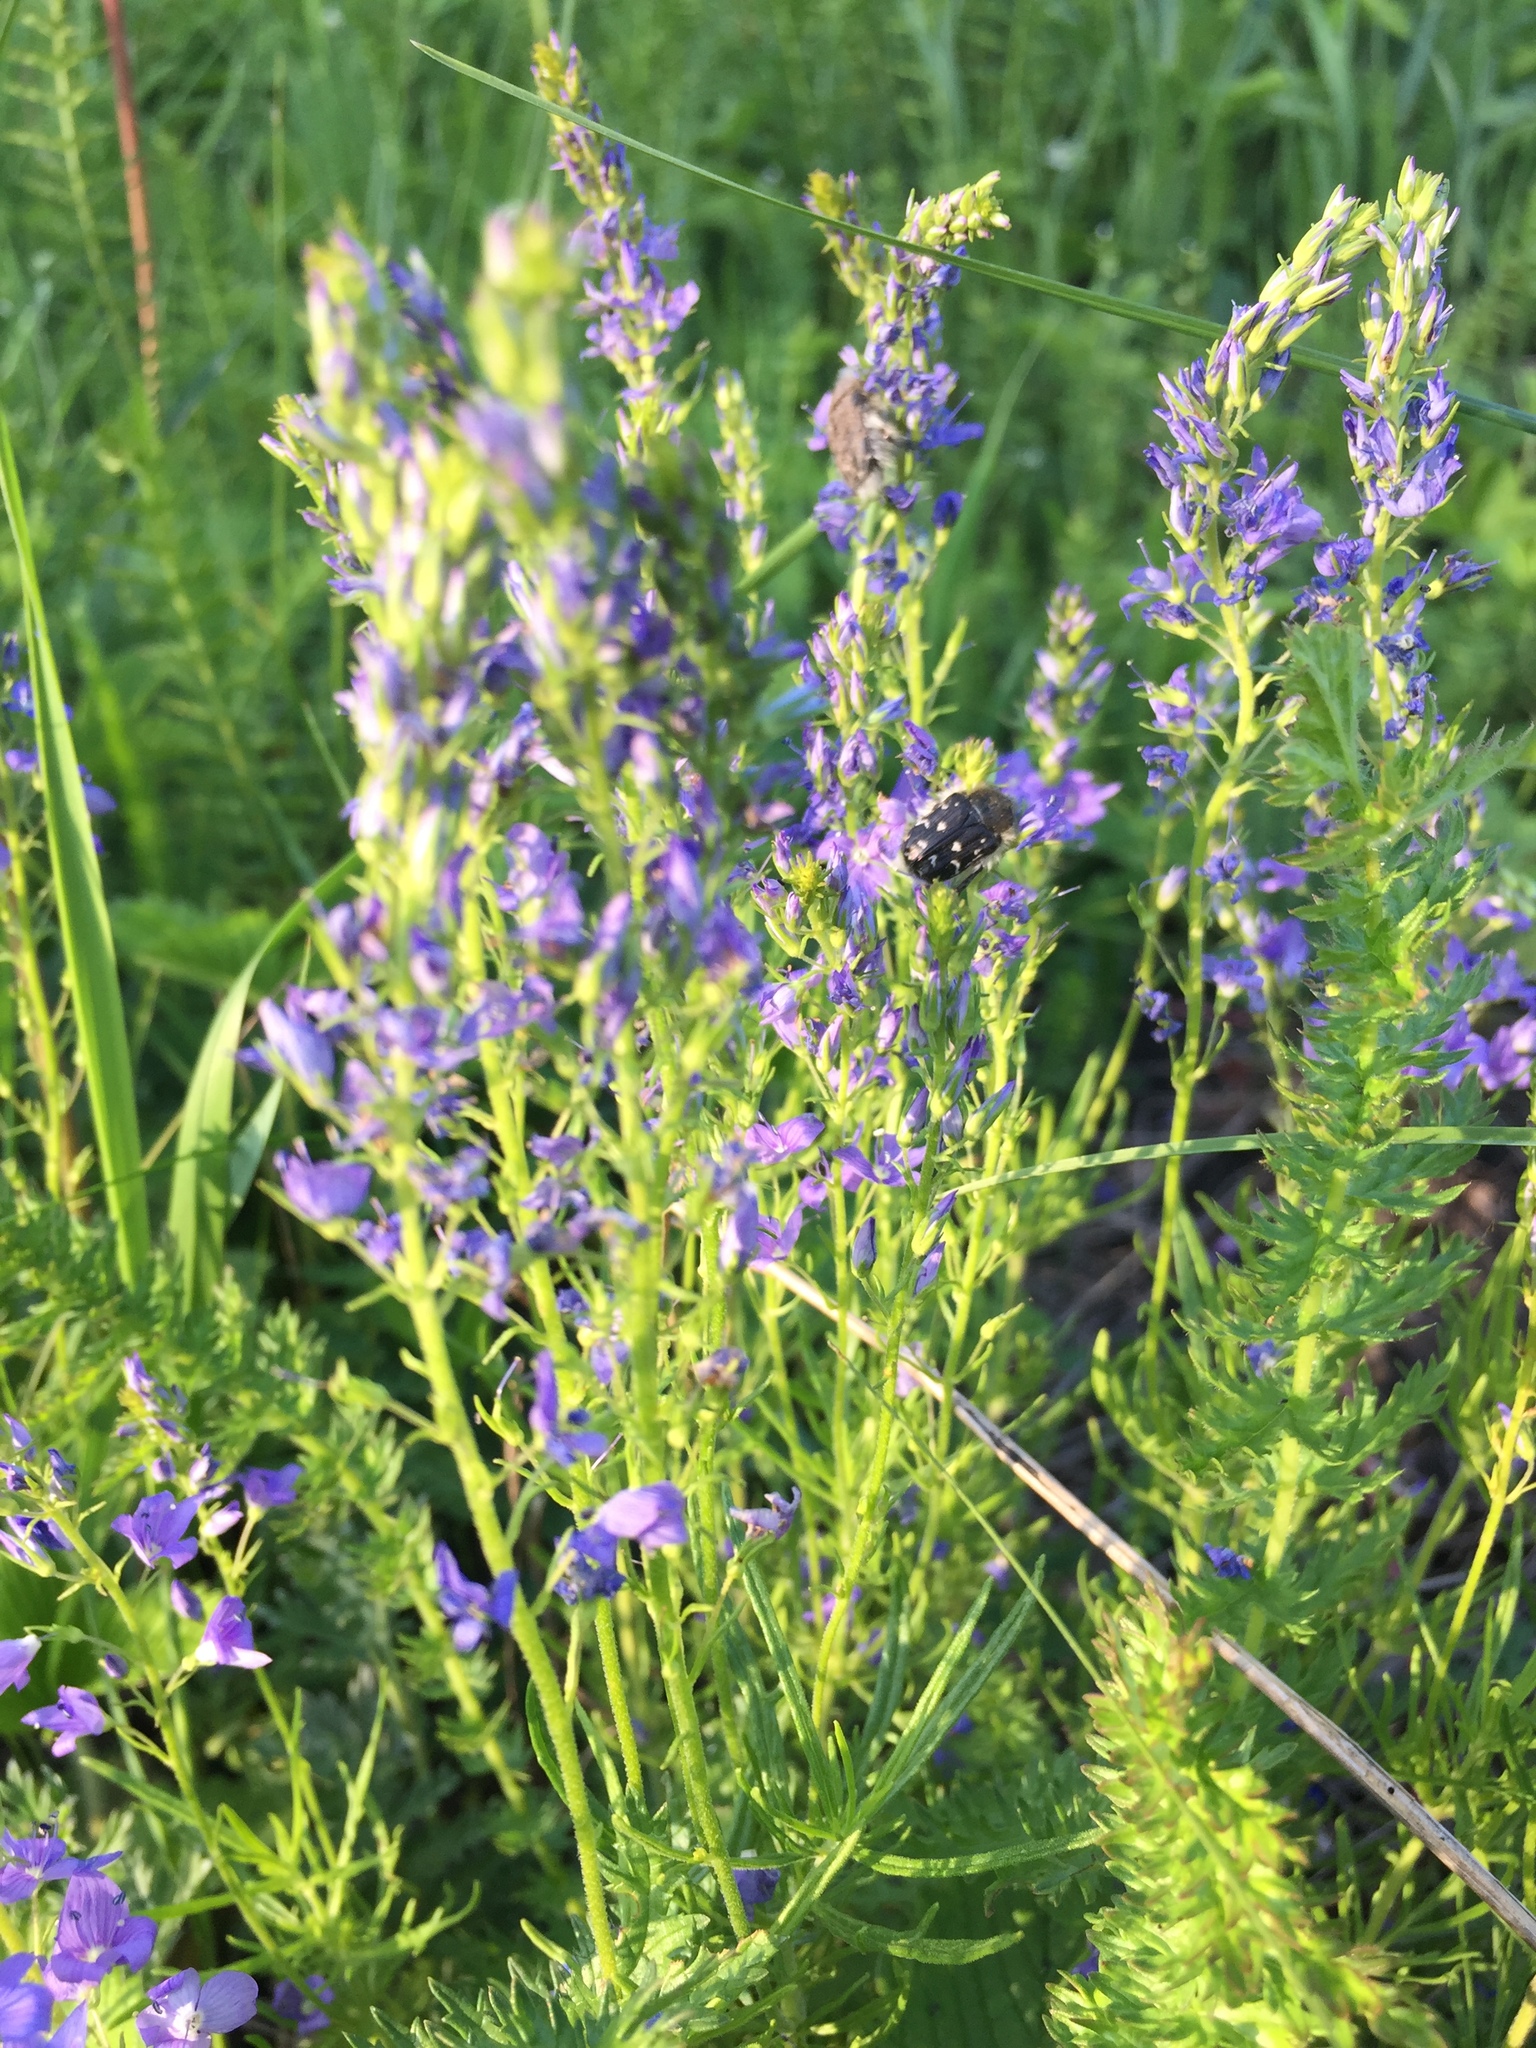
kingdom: Plantae
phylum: Tracheophyta
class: Magnoliopsida
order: Lamiales
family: Plantaginaceae
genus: Veronica
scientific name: Veronica austriaca
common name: Large speedwell
